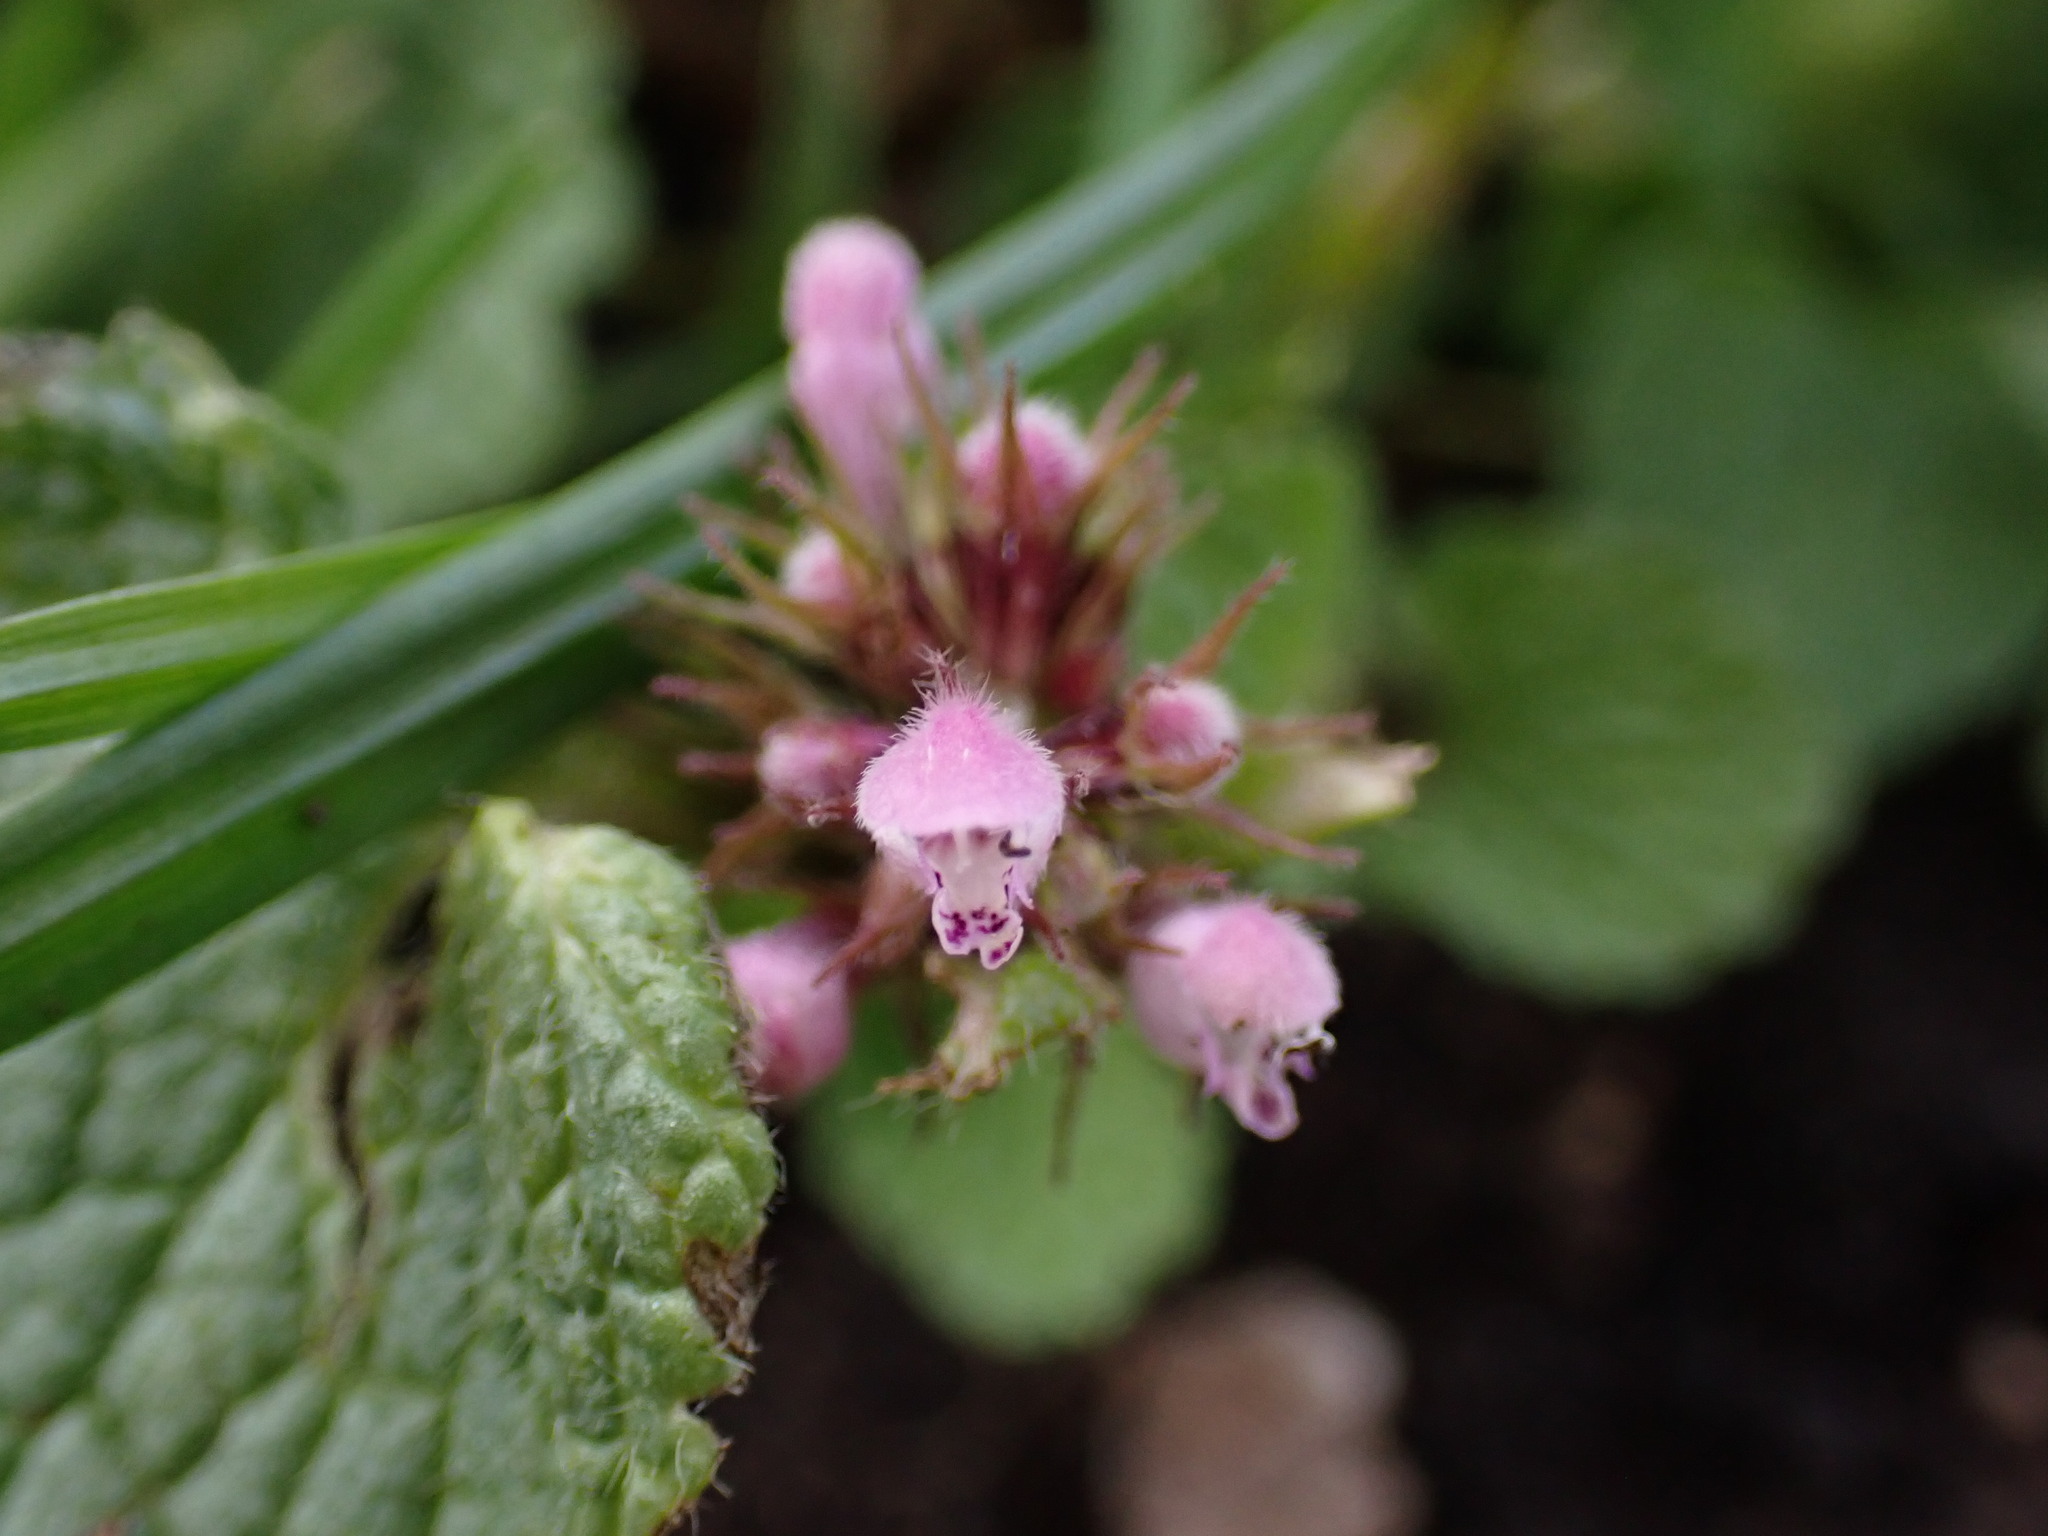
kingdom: Plantae
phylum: Tracheophyta
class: Magnoliopsida
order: Lamiales
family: Lamiaceae
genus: Lamium
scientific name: Lamium purpureum
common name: Red dead-nettle
